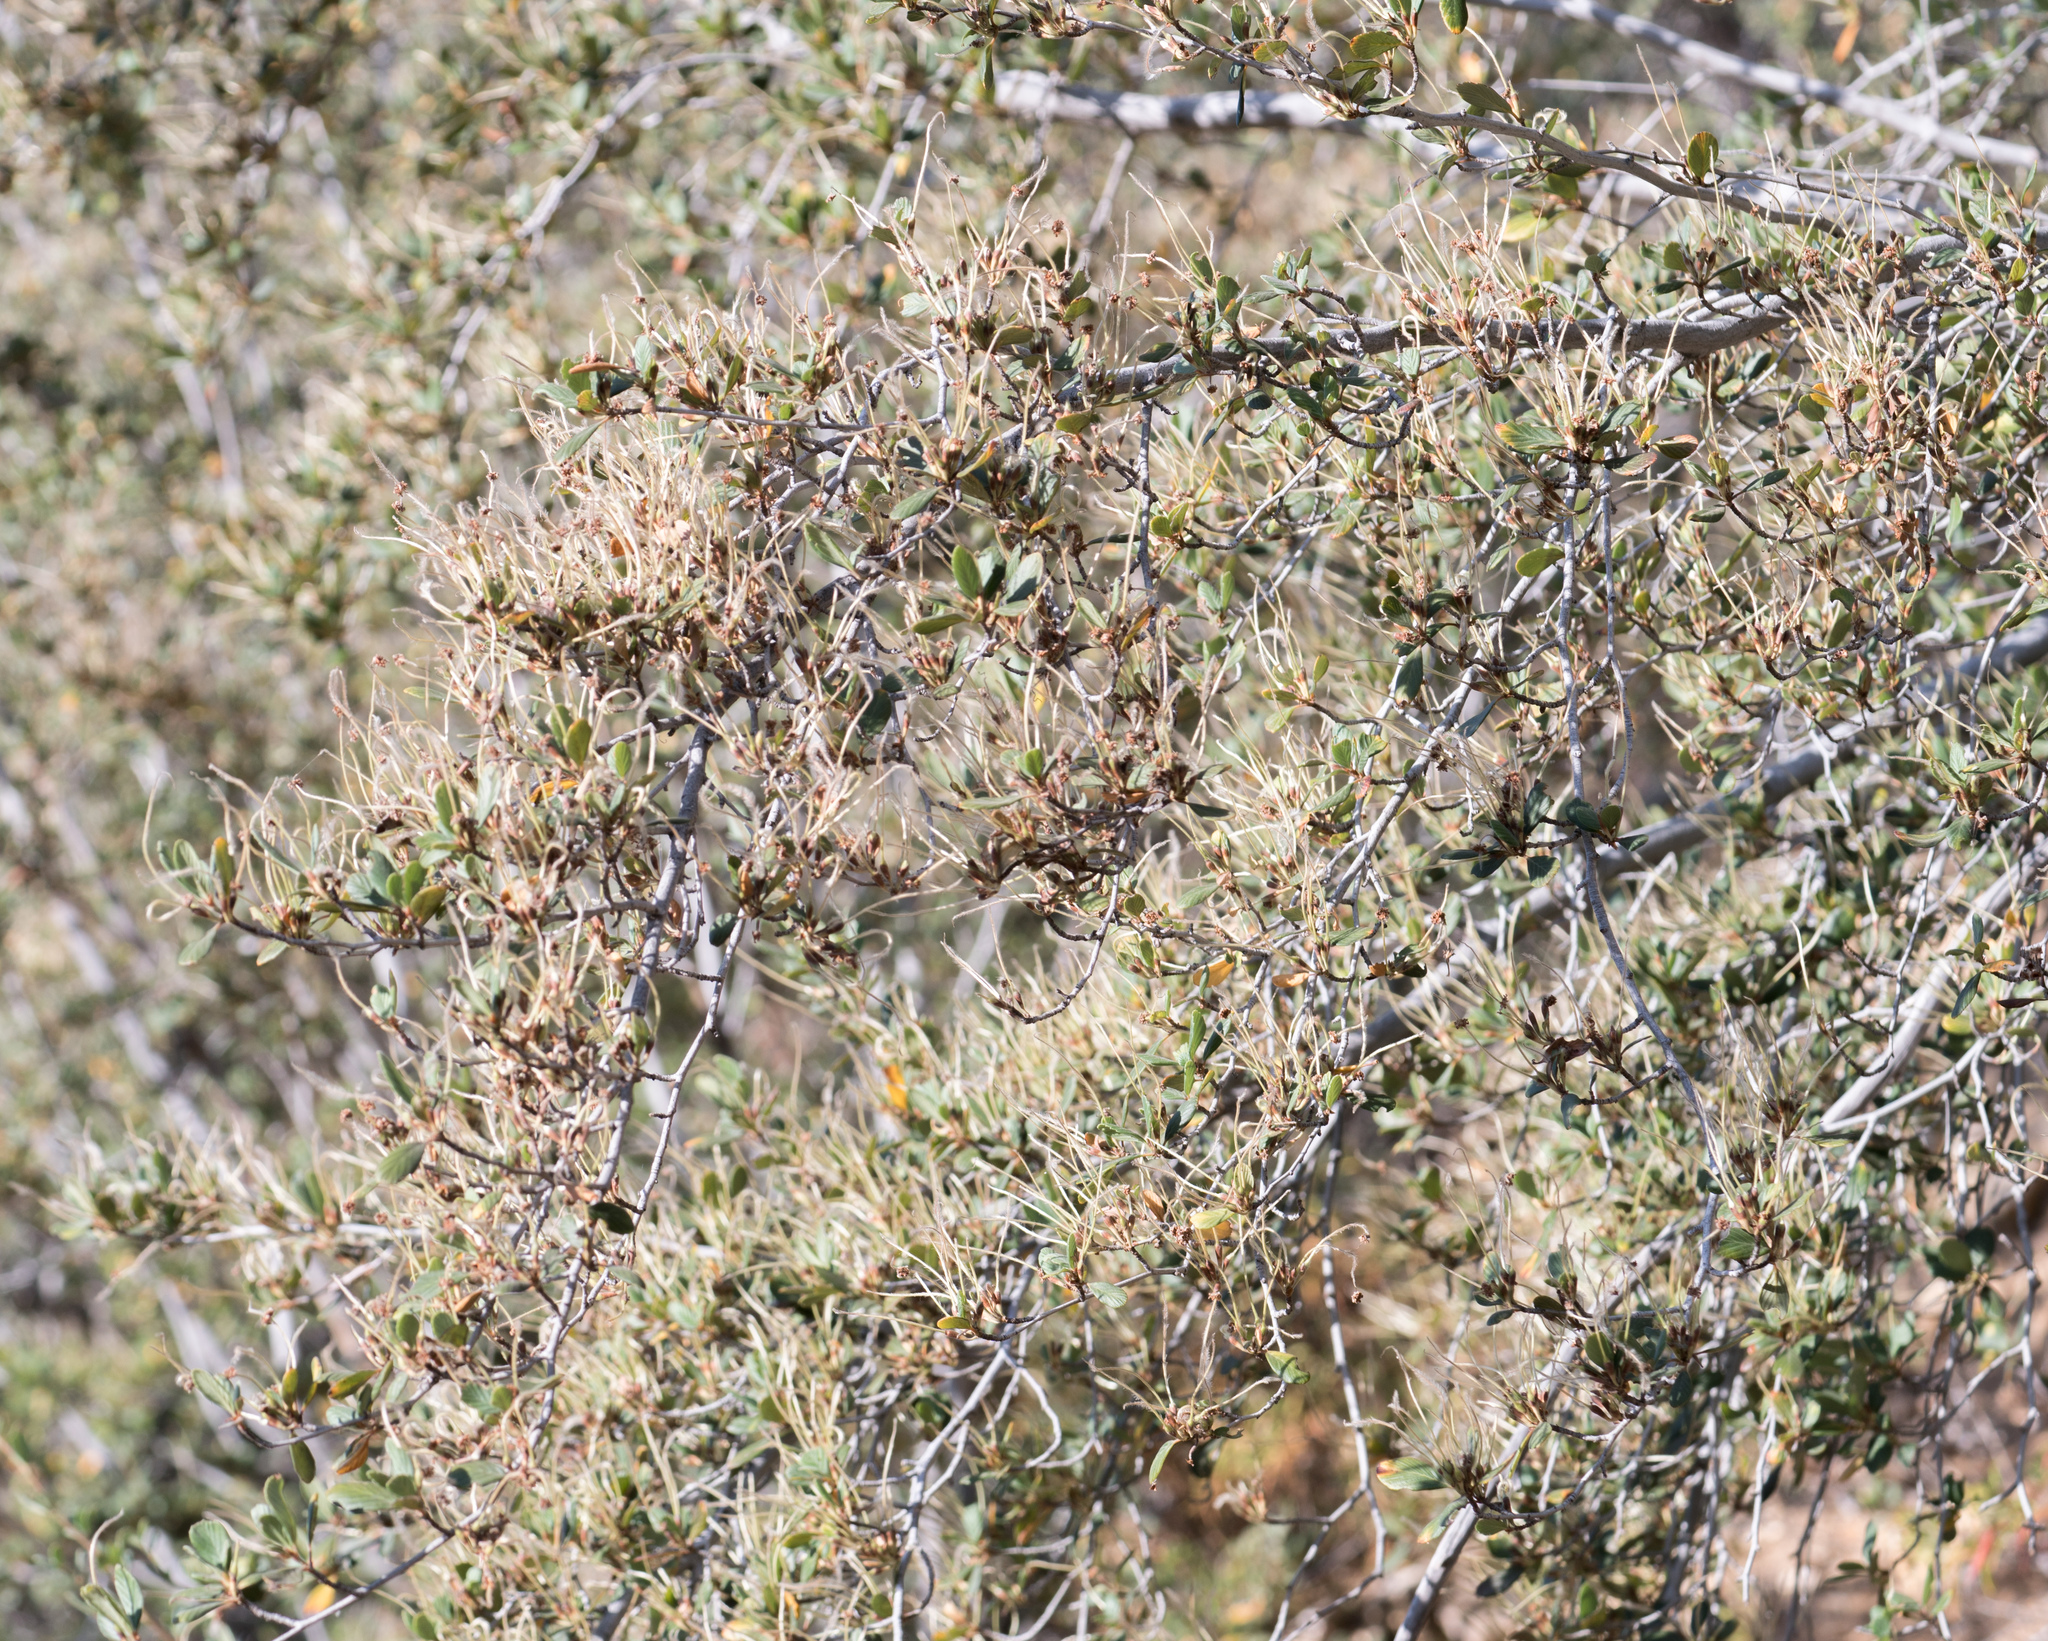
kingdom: Plantae
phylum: Tracheophyta
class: Magnoliopsida
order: Rosales
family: Rosaceae
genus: Cercocarpus
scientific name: Cercocarpus
